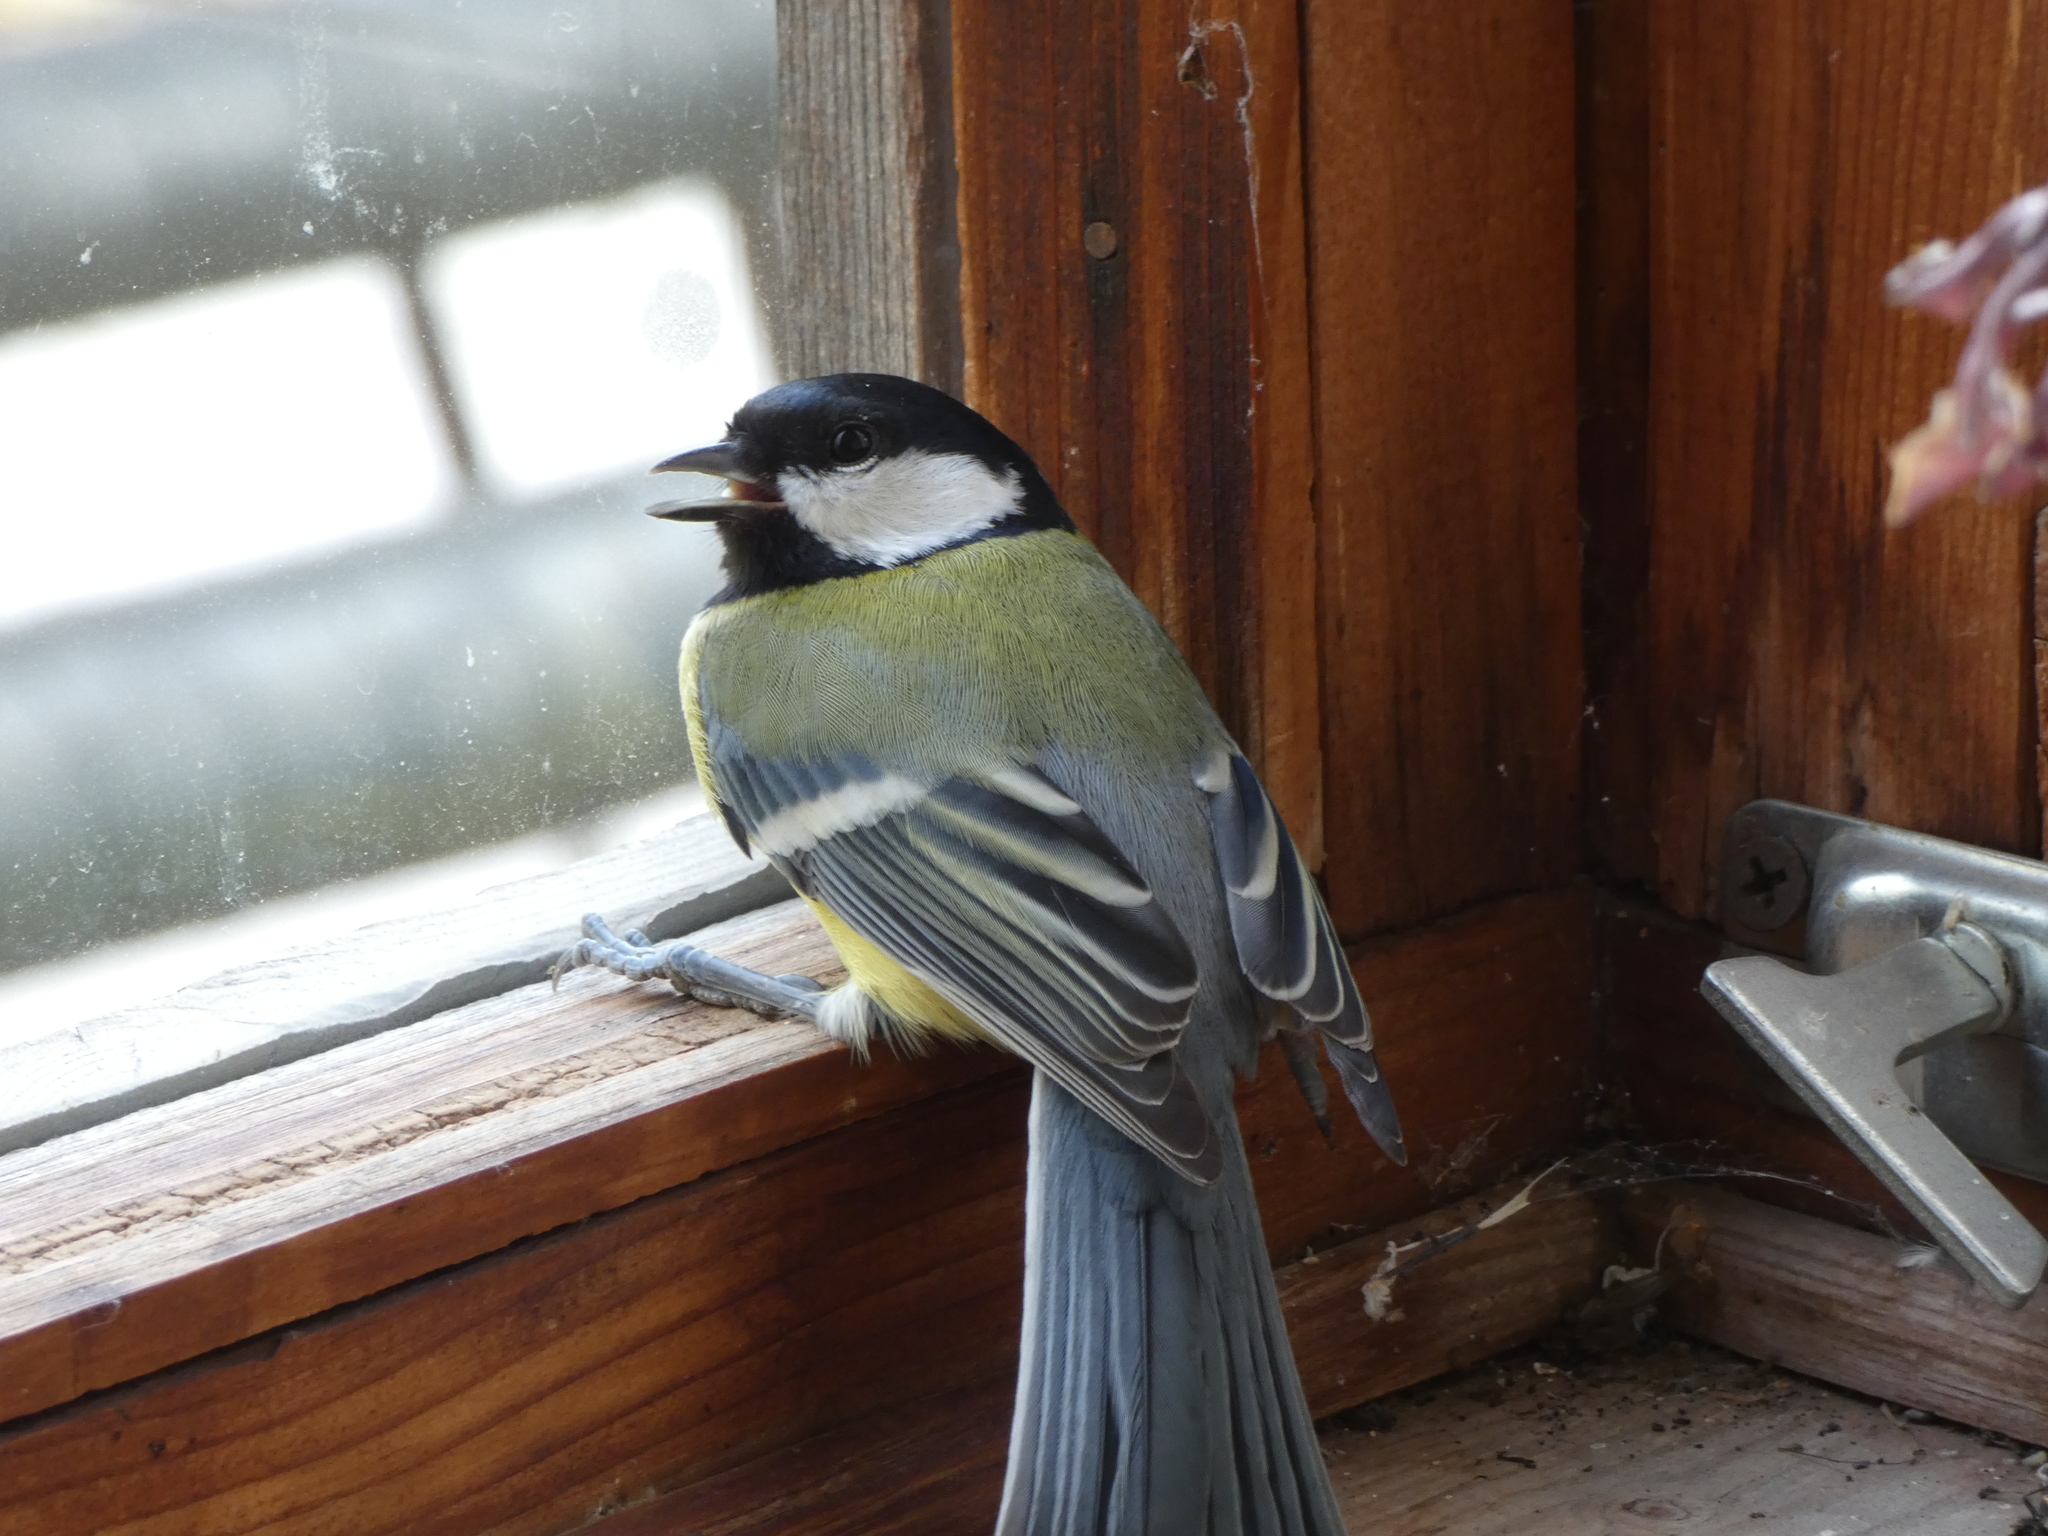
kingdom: Animalia
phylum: Chordata
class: Aves
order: Passeriformes
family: Paridae
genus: Parus
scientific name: Parus major
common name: Great tit
